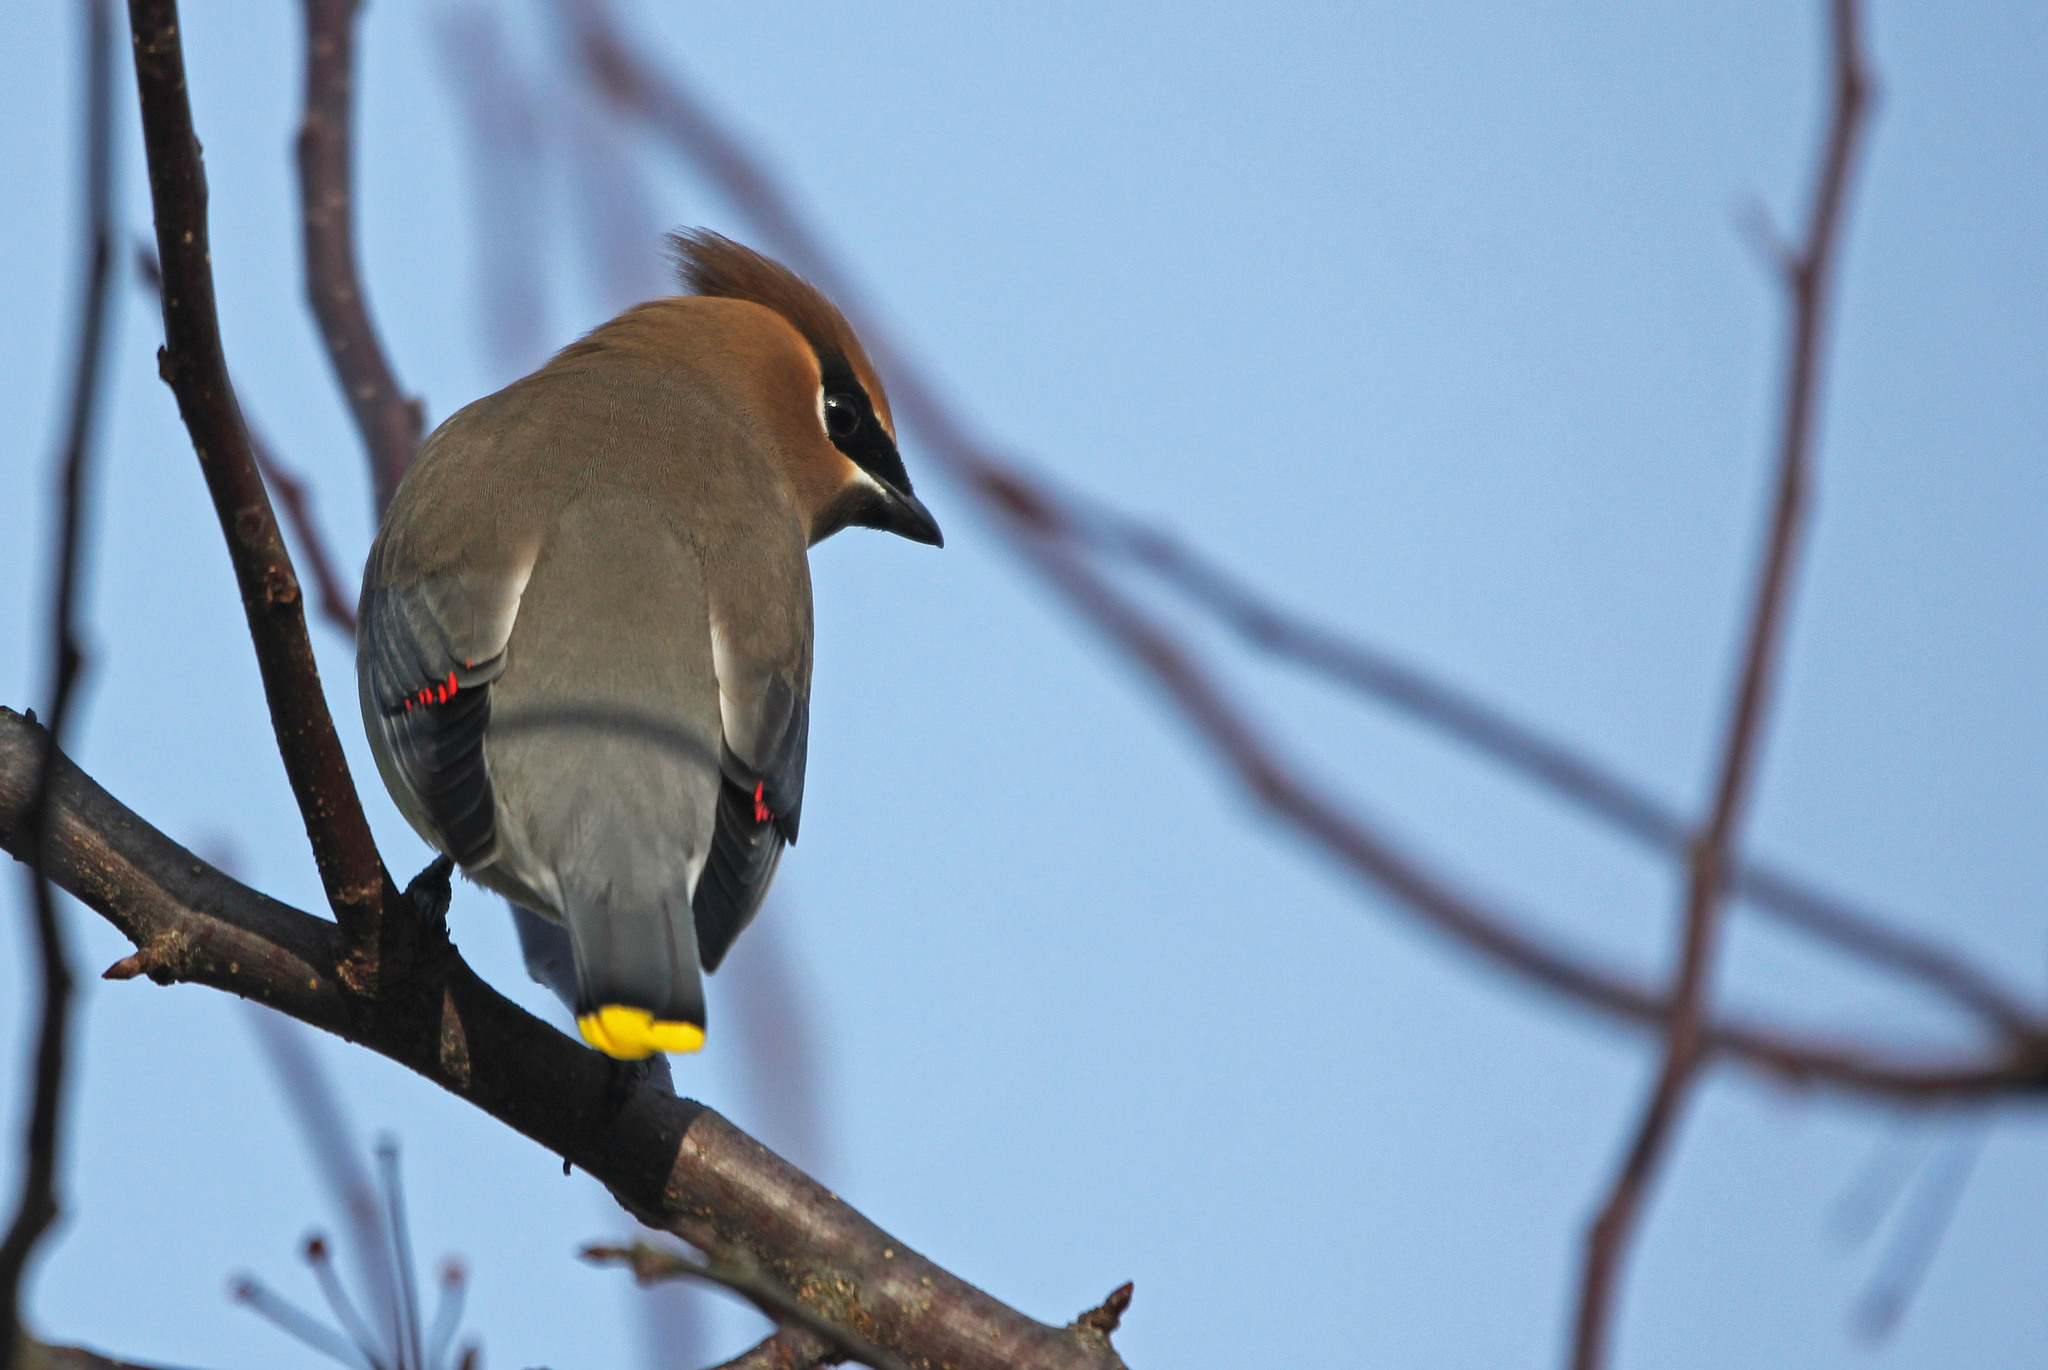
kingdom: Animalia
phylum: Chordata
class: Aves
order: Passeriformes
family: Bombycillidae
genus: Bombycilla
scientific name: Bombycilla cedrorum
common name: Cedar waxwing
